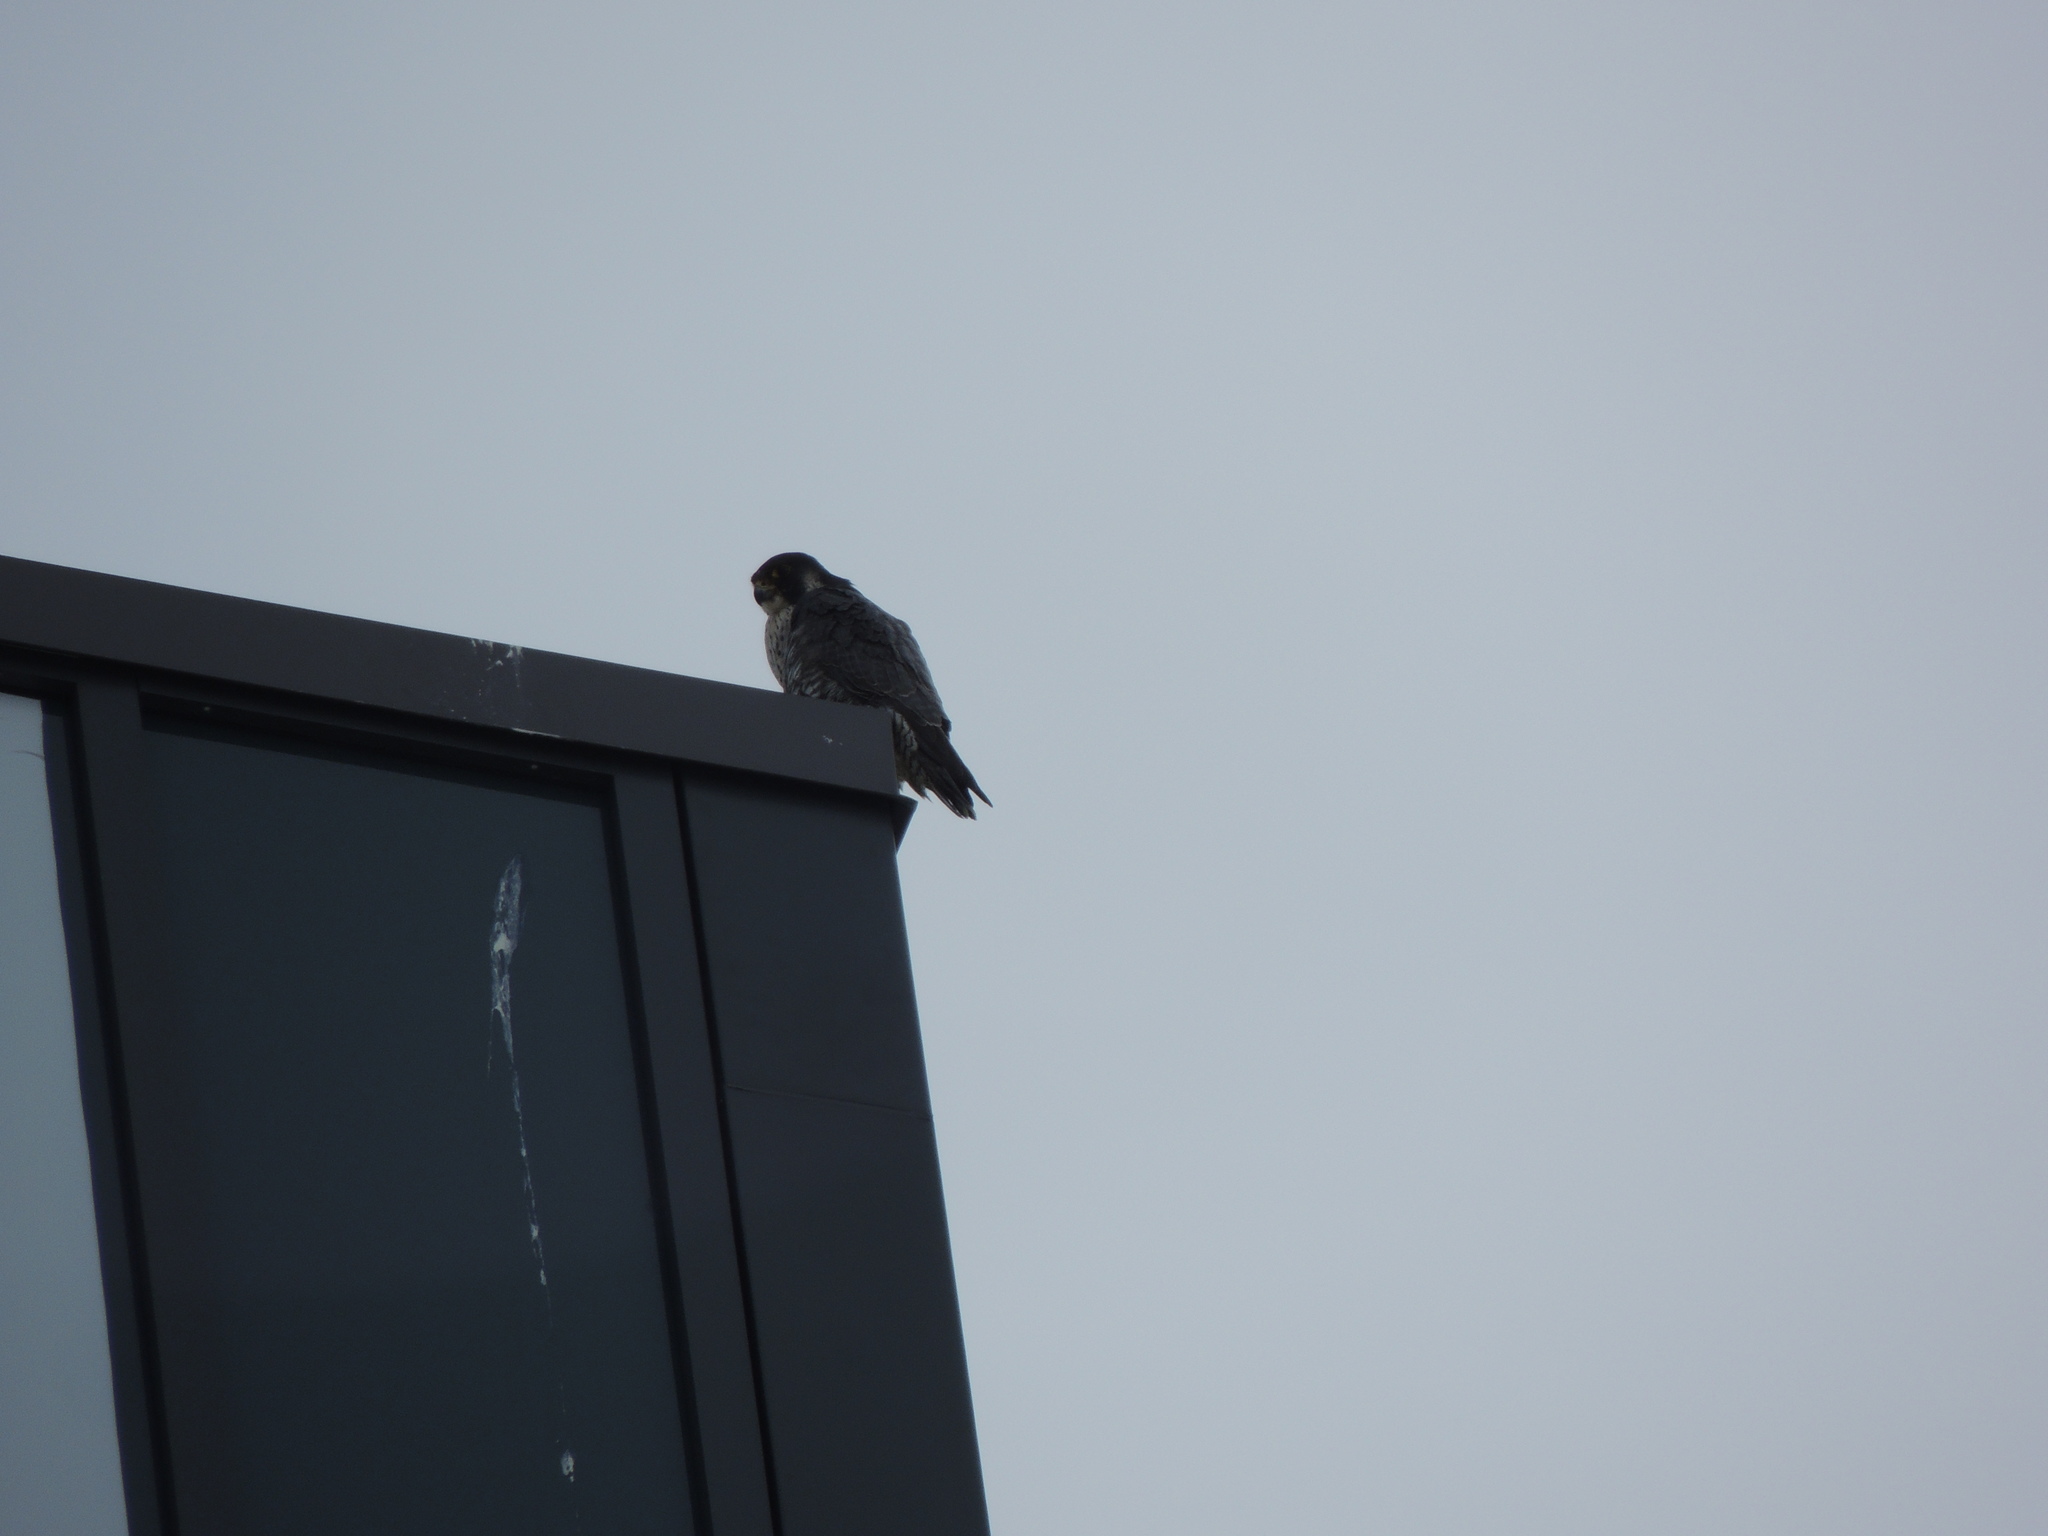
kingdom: Animalia
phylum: Chordata
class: Aves
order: Falconiformes
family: Falconidae
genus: Falco
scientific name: Falco peregrinus
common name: Peregrine falcon
